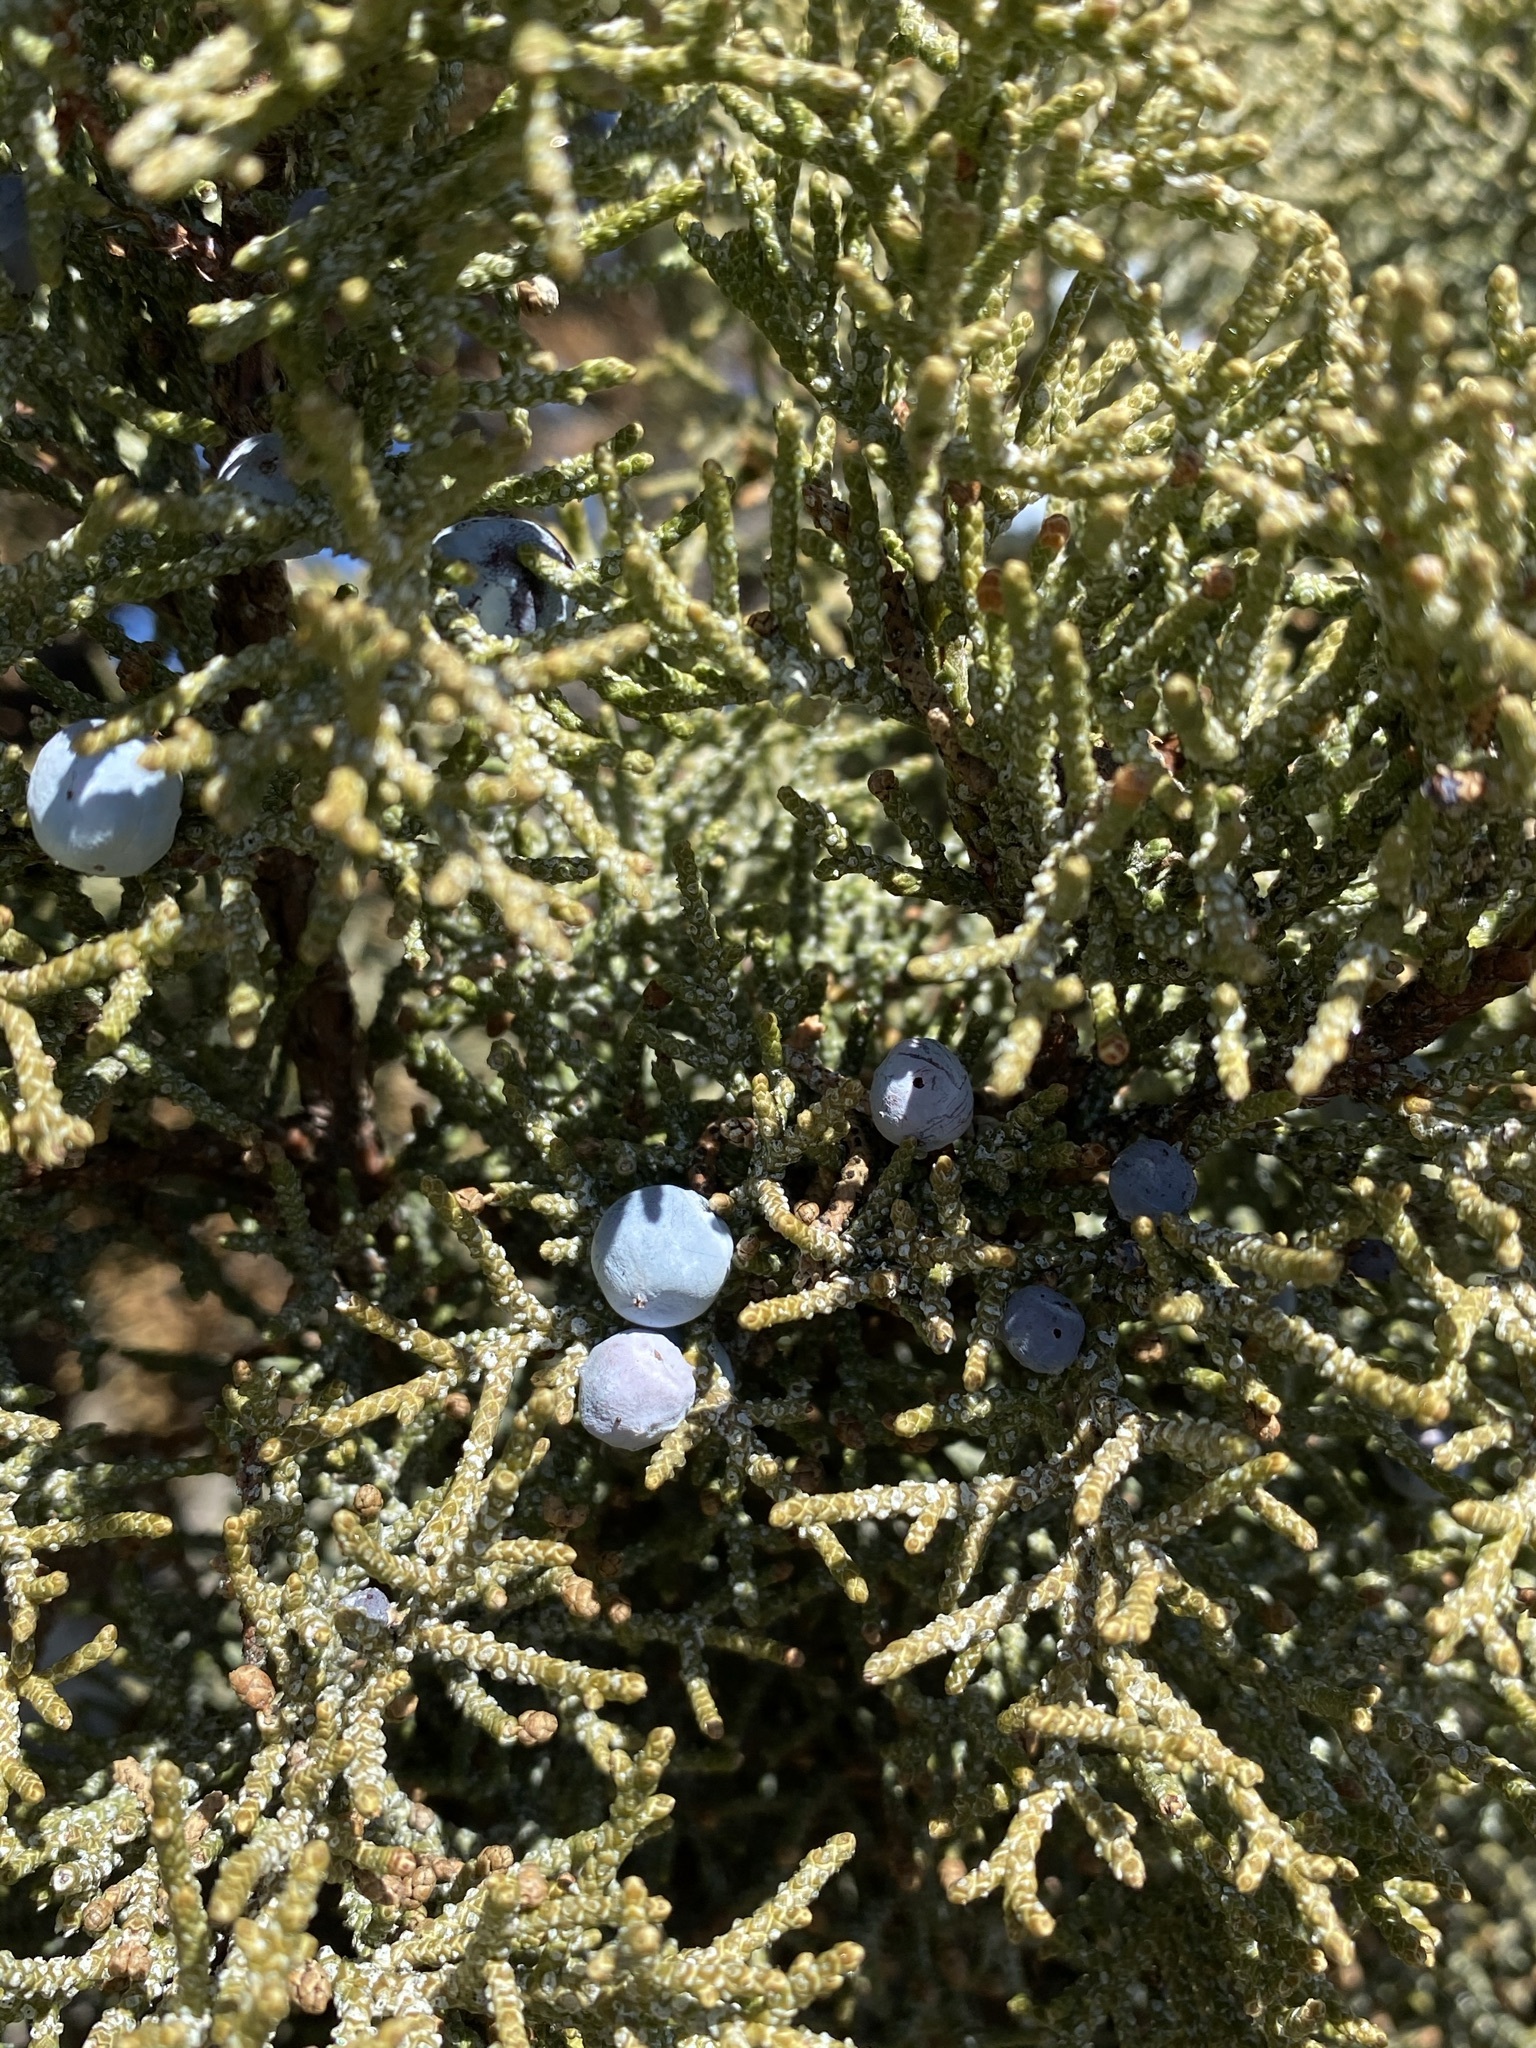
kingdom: Plantae
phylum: Tracheophyta
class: Pinopsida
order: Pinales
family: Cupressaceae
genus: Juniperus
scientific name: Juniperus occidentalis
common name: Western juniper
